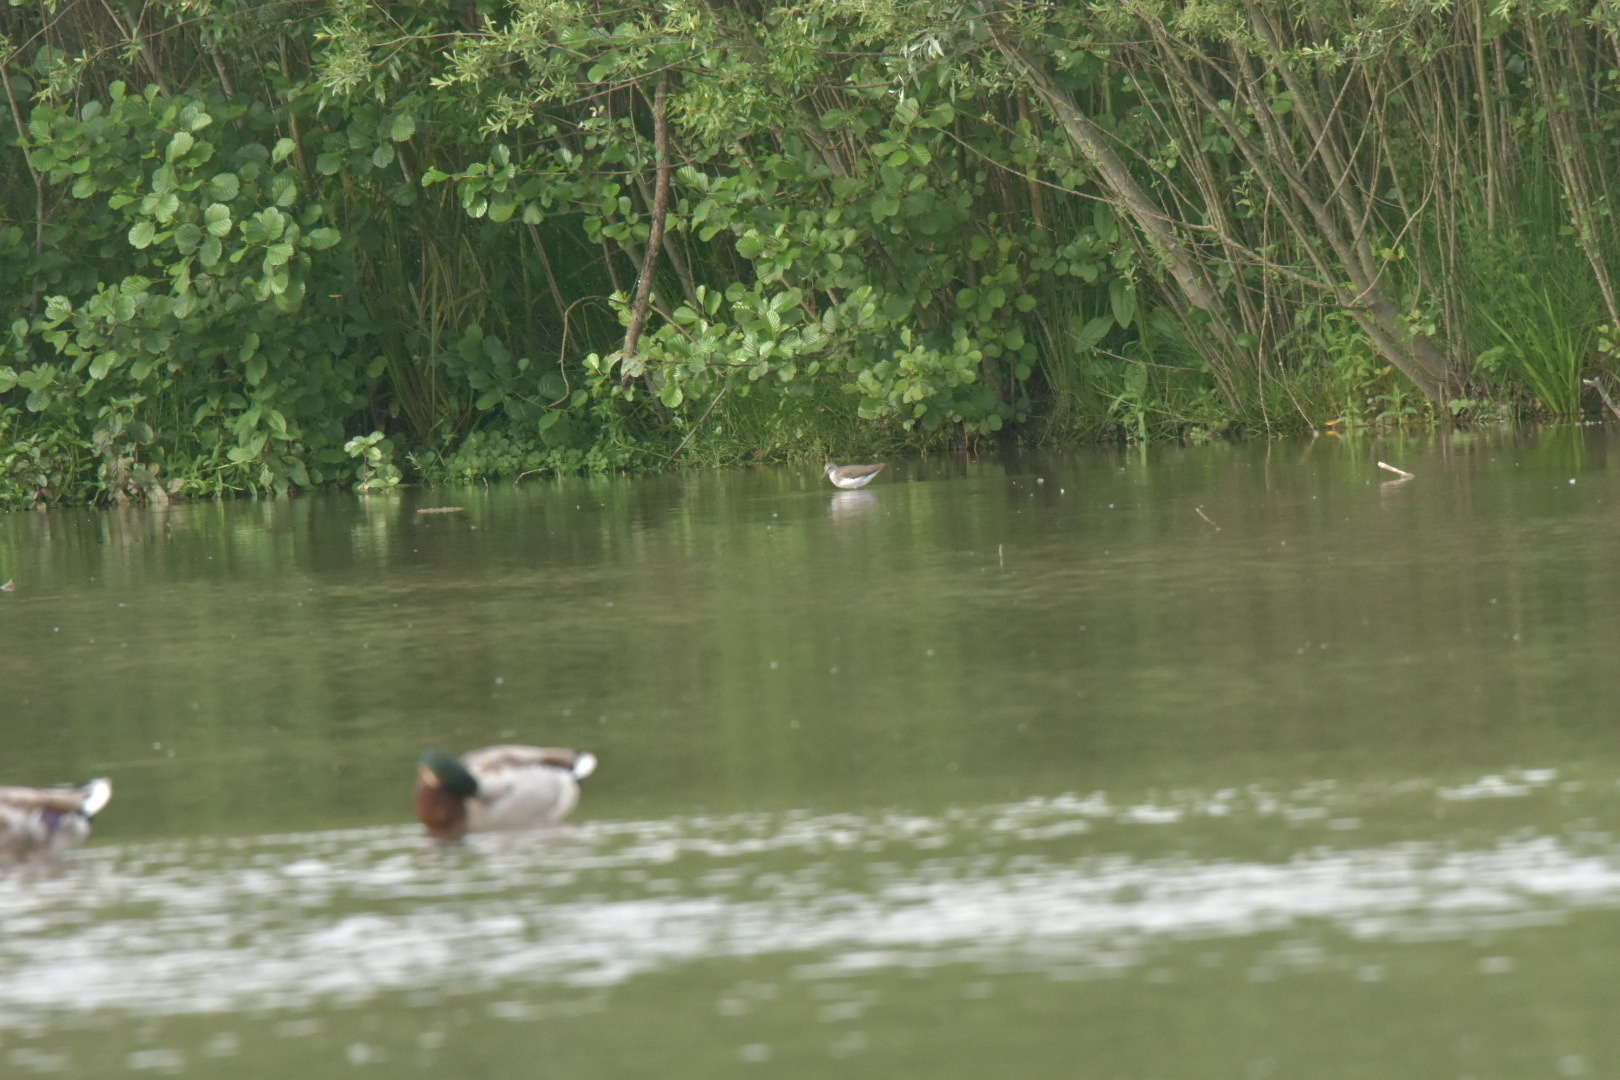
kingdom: Animalia
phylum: Chordata
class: Aves
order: Charadriiformes
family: Scolopacidae
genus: Tringa
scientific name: Tringa ochropus
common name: Green sandpiper
